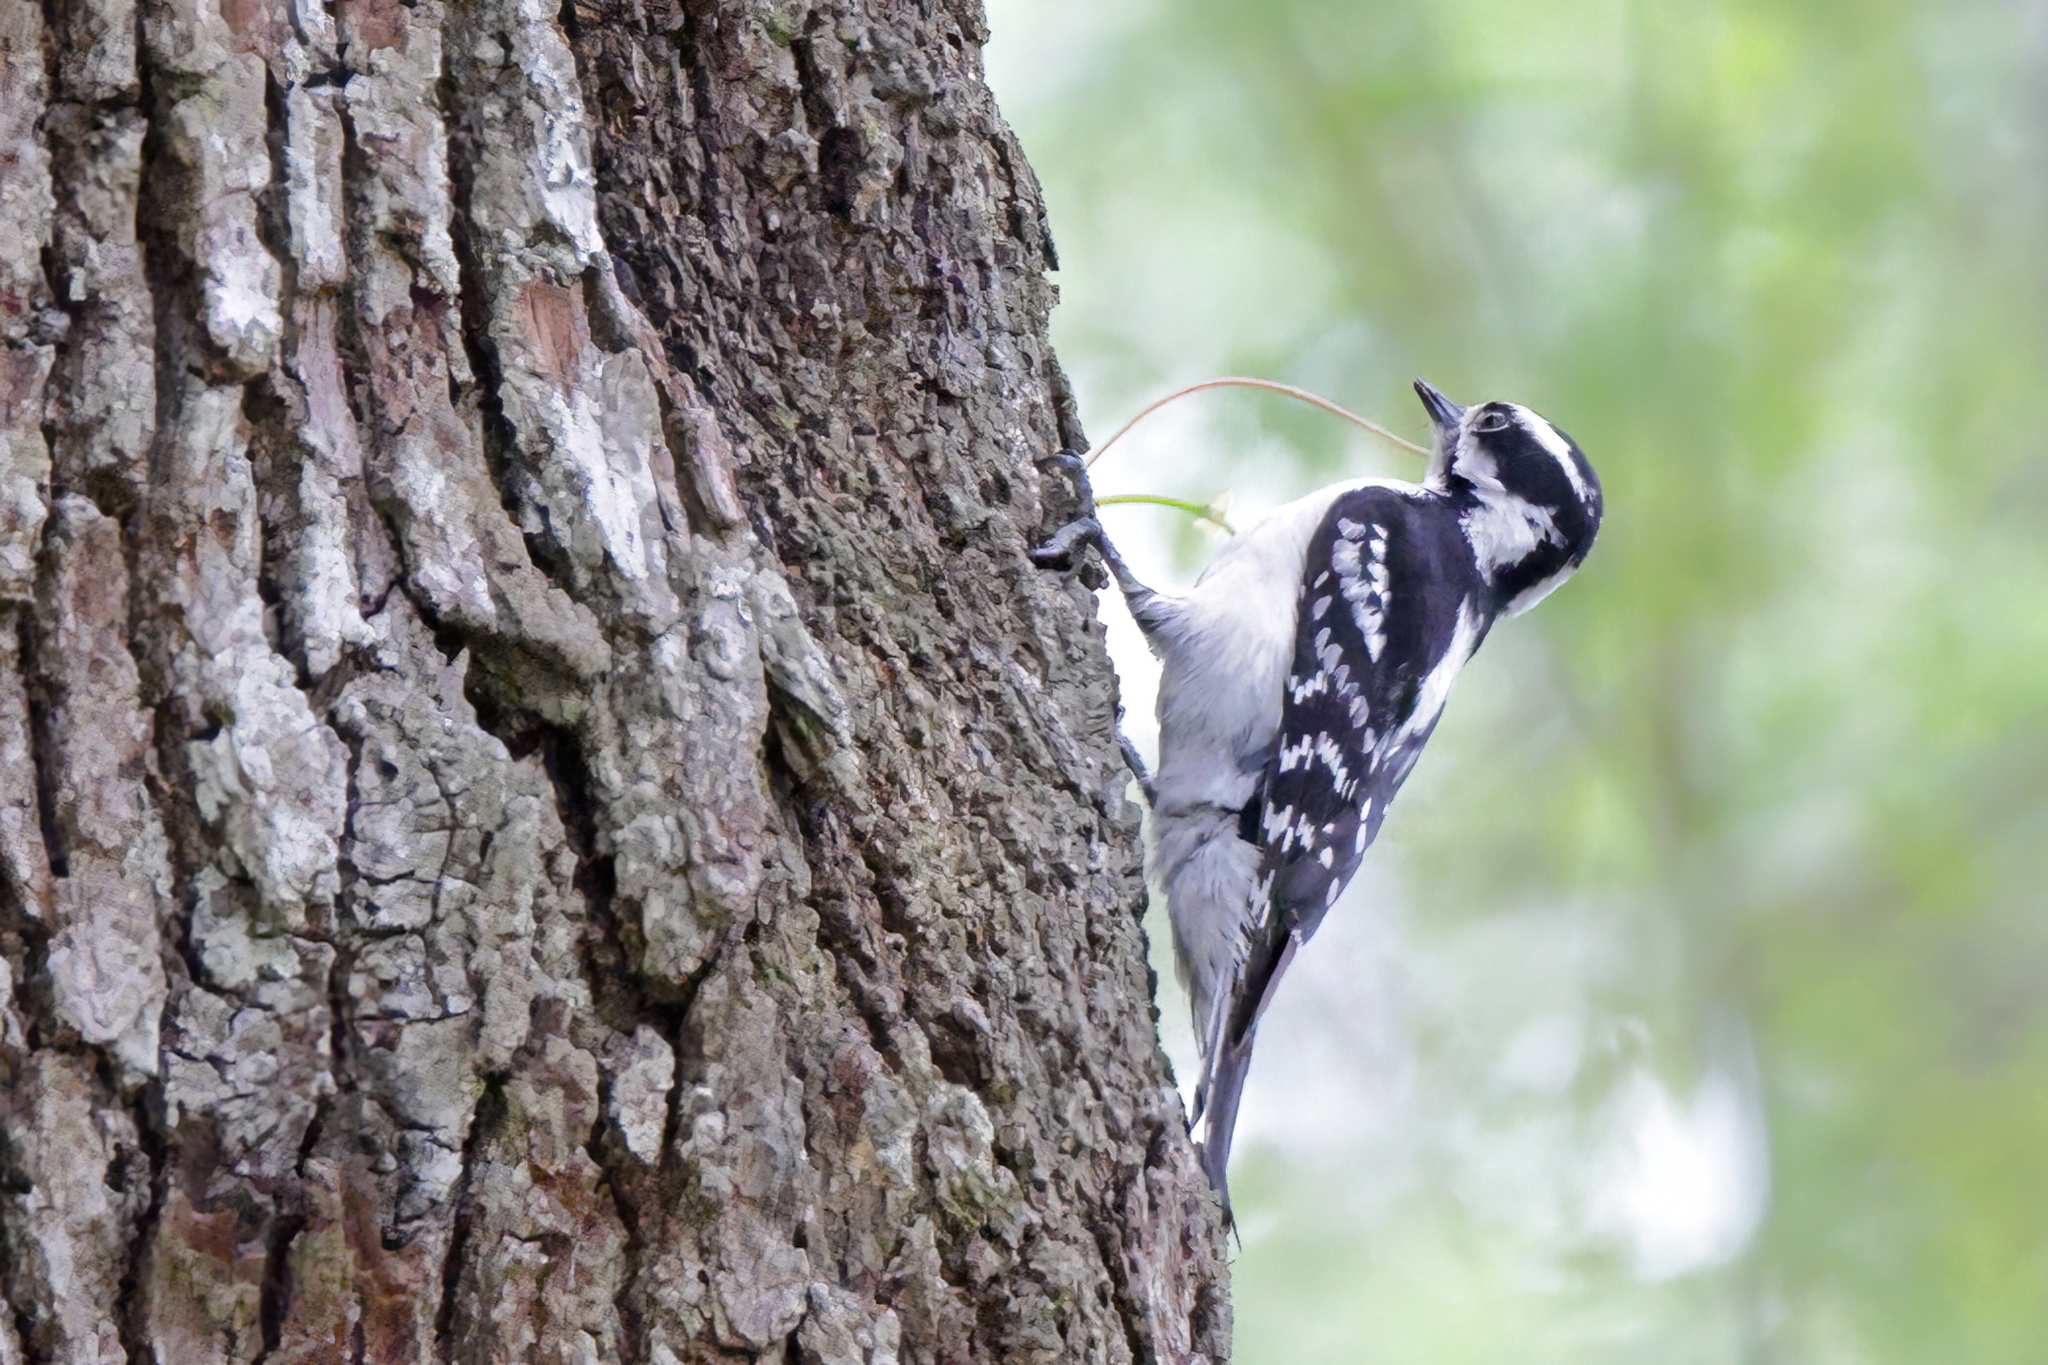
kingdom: Animalia
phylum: Chordata
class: Aves
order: Piciformes
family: Picidae
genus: Dryobates
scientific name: Dryobates pubescens
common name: Downy woodpecker
